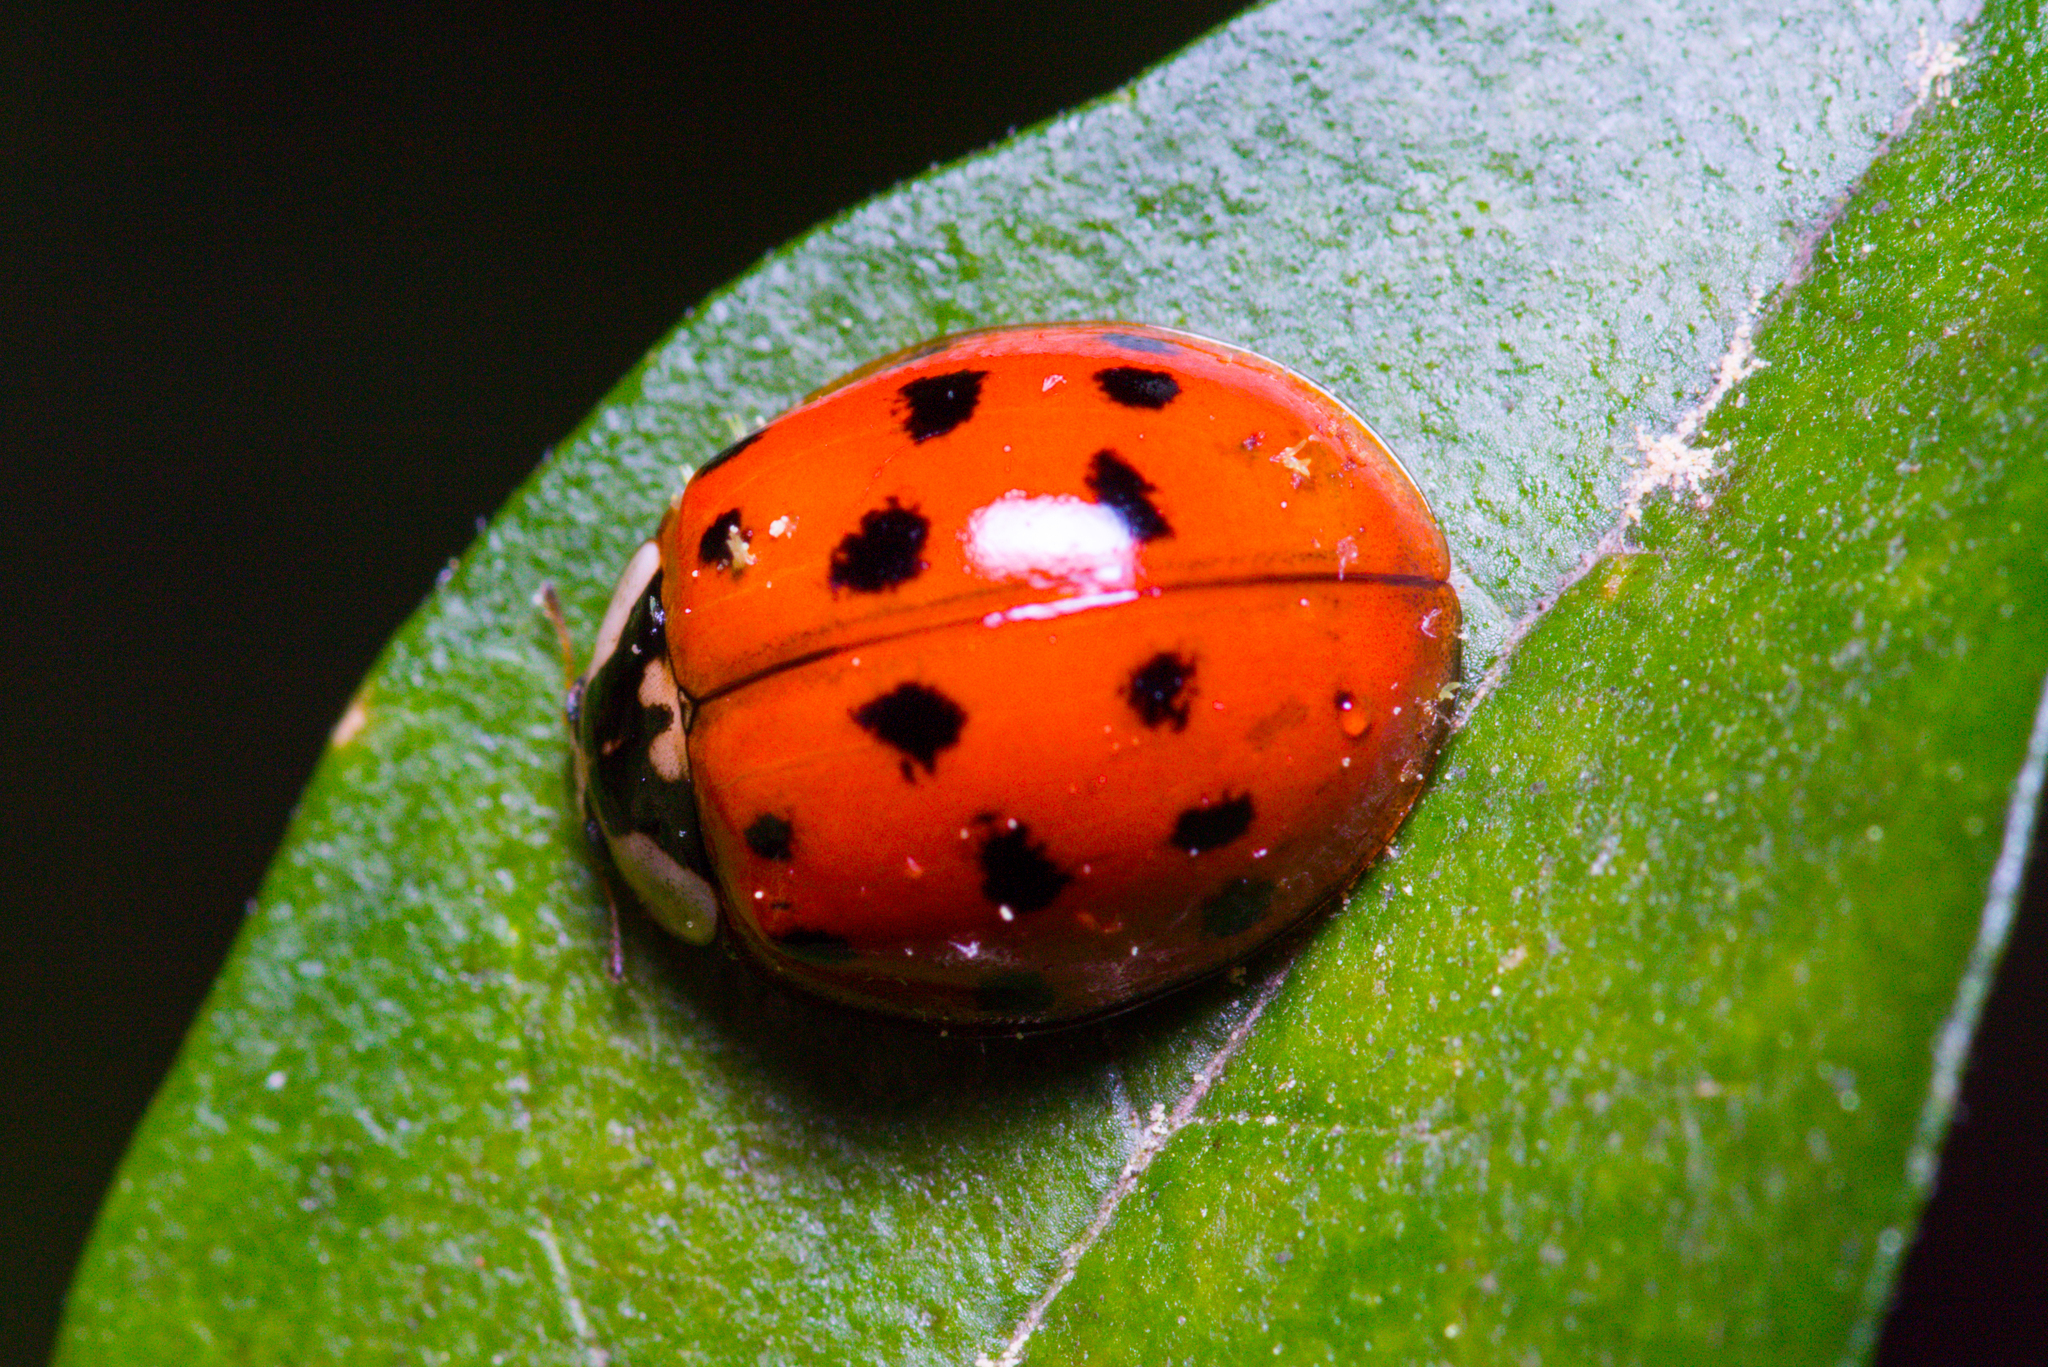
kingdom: Fungi
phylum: Ascomycota
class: Laboulbeniomycetes
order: Laboulbeniales
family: Laboulbeniaceae
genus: Hesperomyces
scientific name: Hesperomyces harmoniae
